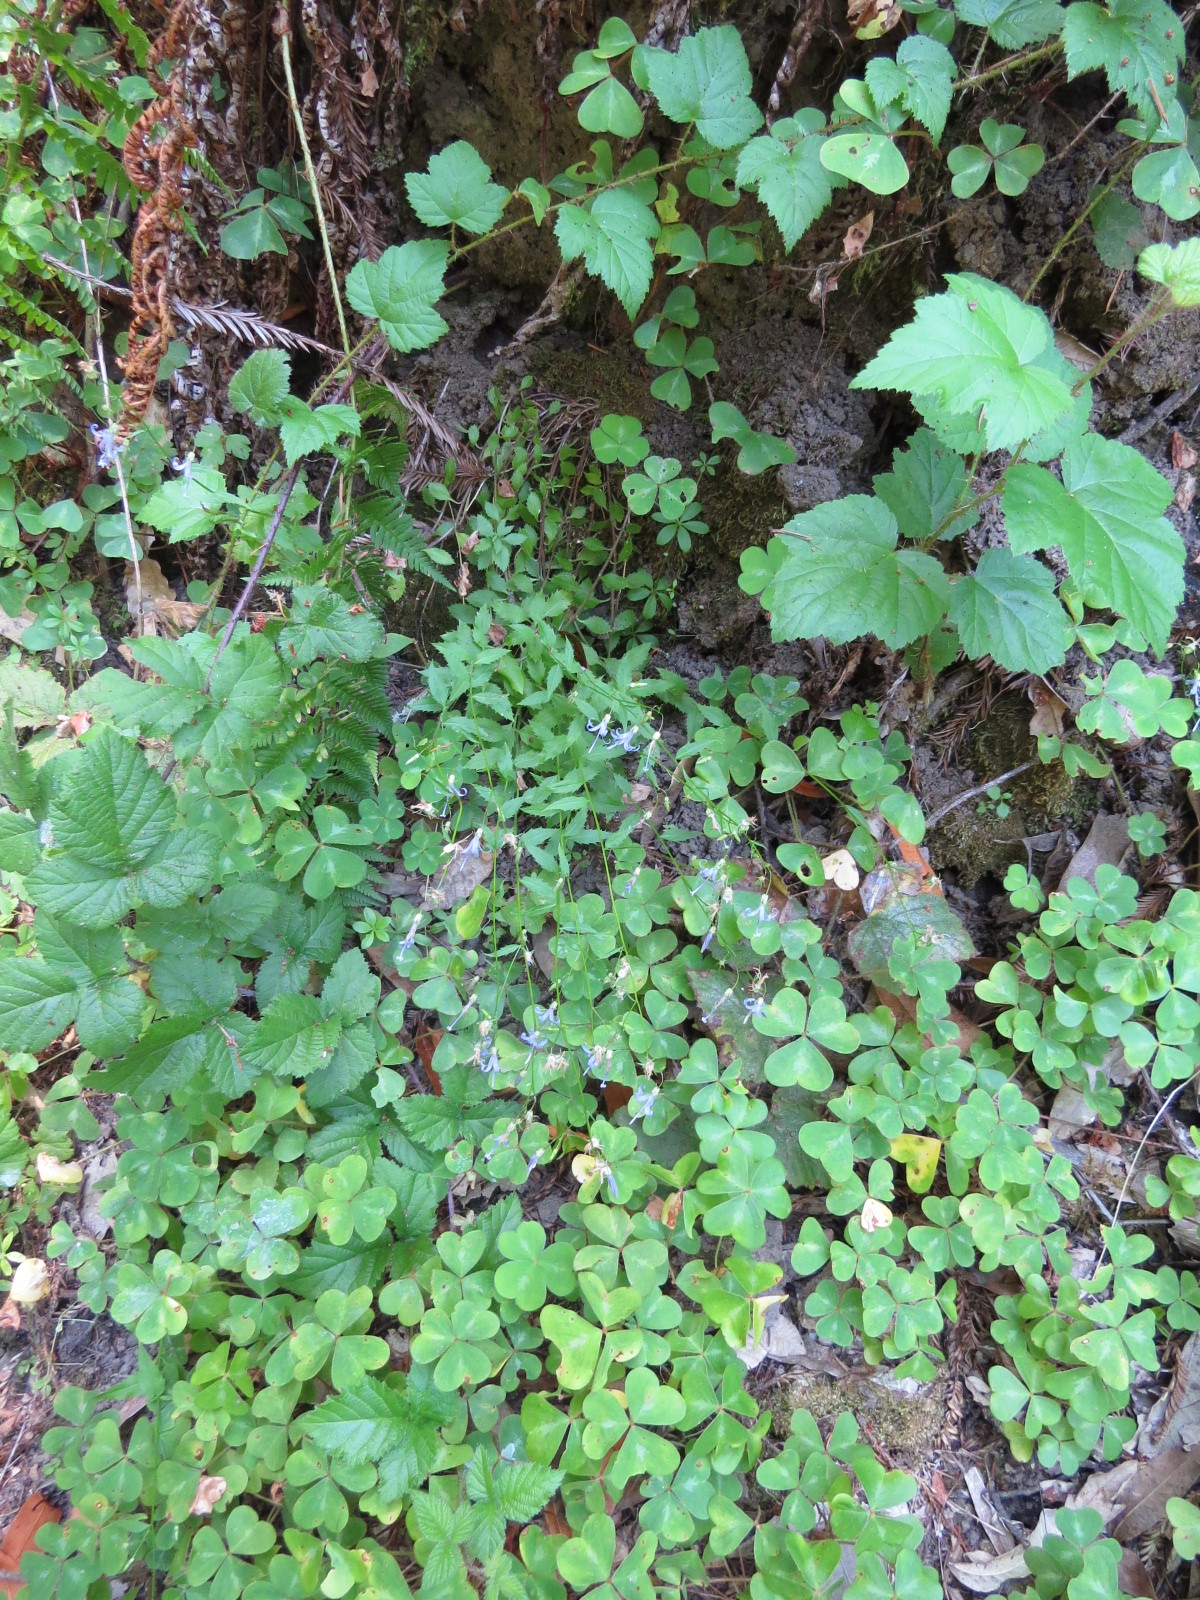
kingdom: Plantae
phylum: Tracheophyta
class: Magnoliopsida
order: Asterales
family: Campanulaceae
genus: Smithiastrum
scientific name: Smithiastrum prenanthoides
